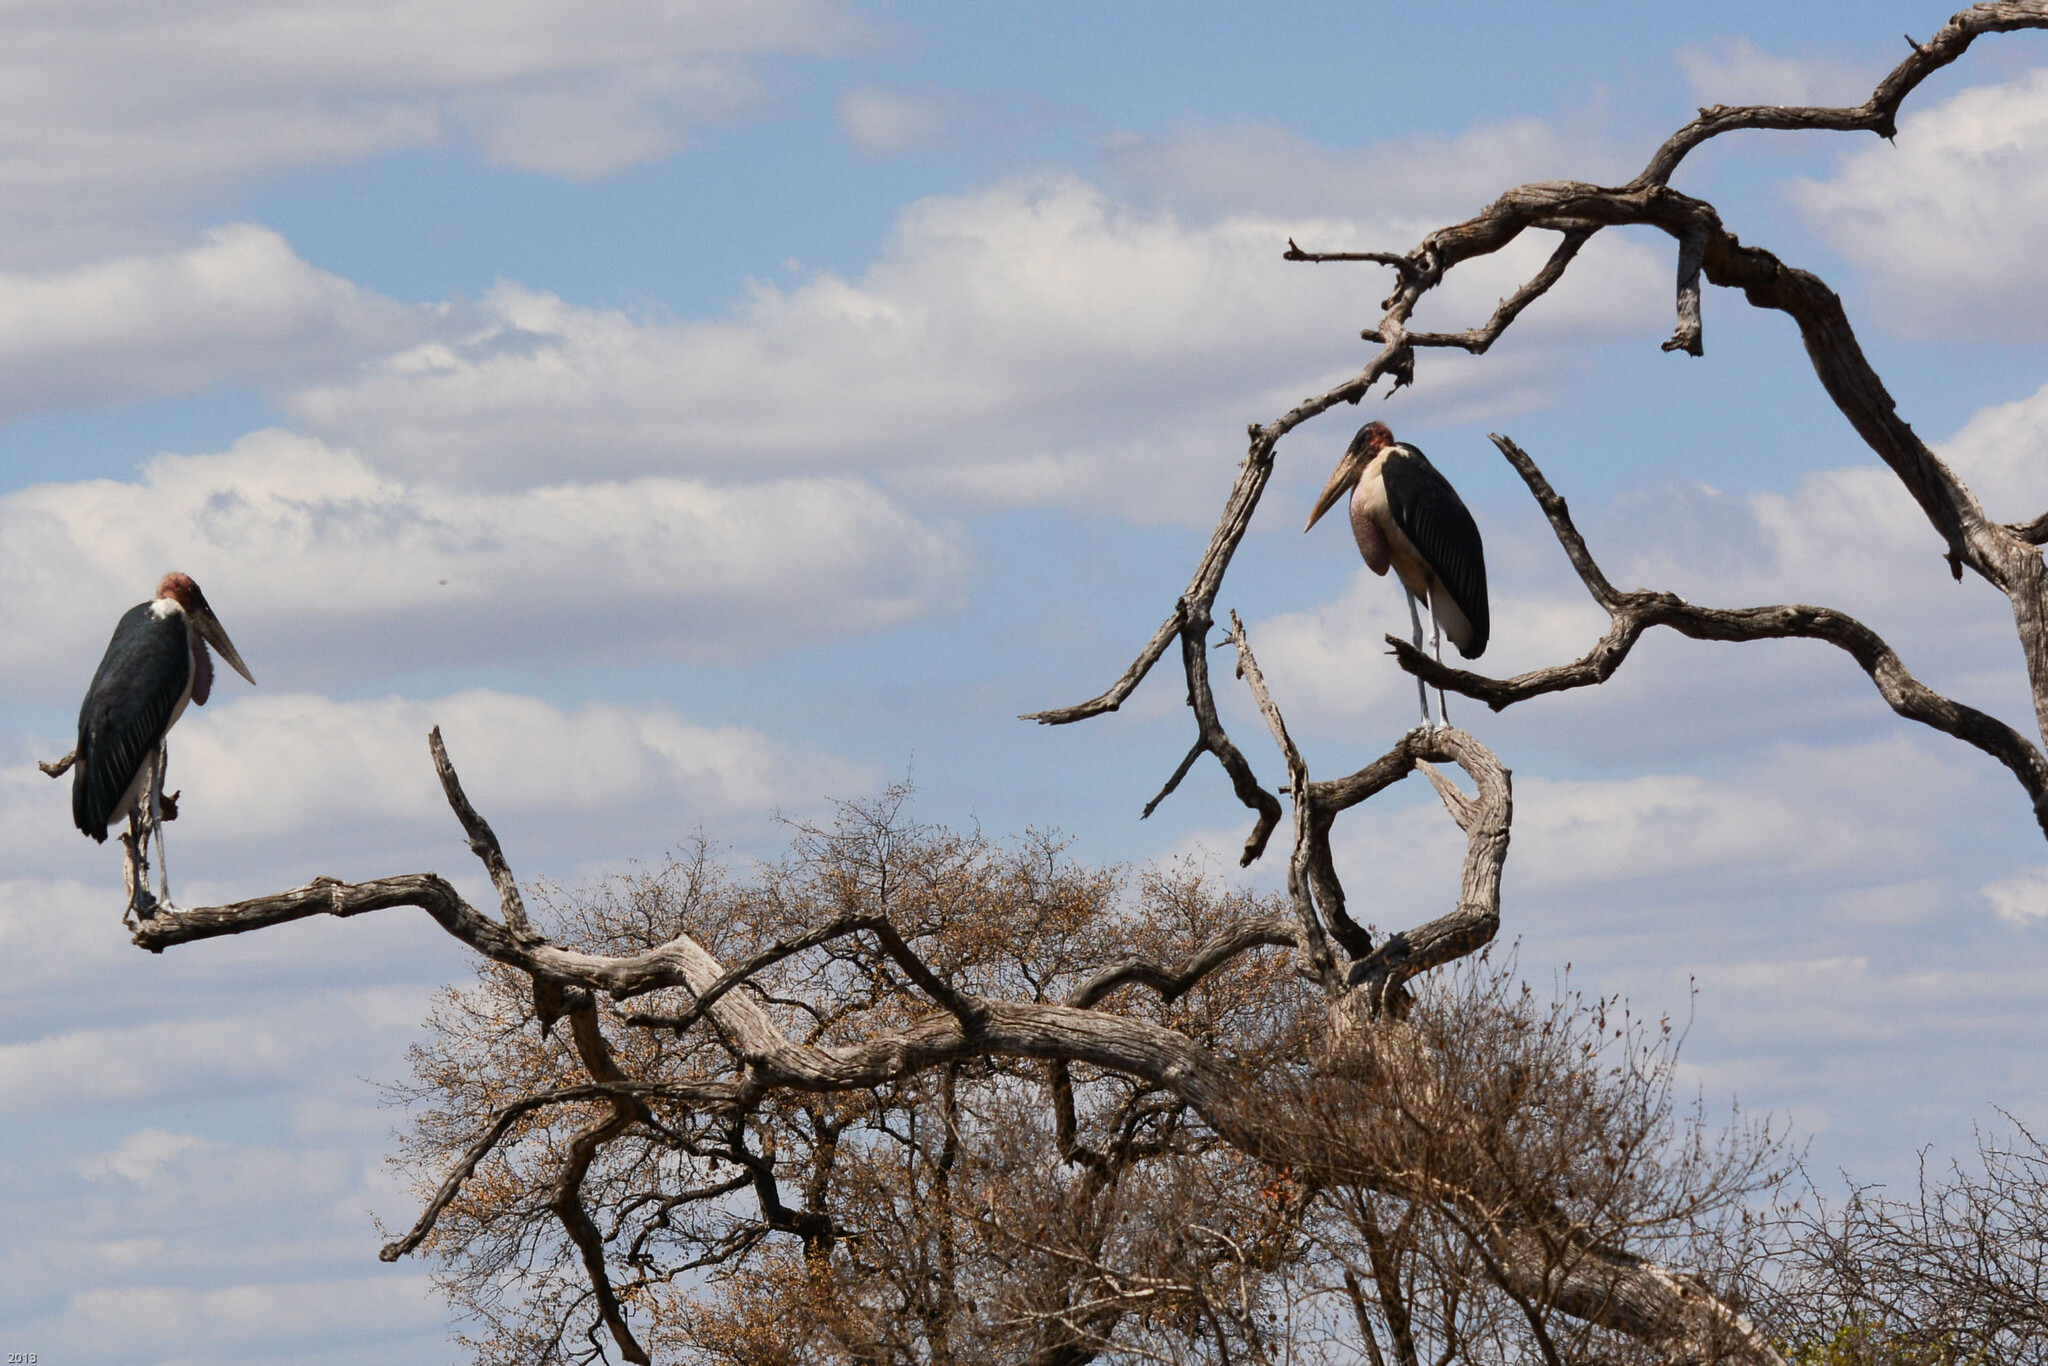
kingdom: Animalia
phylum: Chordata
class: Aves
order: Ciconiiformes
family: Ciconiidae
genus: Leptoptilos
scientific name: Leptoptilos crumenifer
